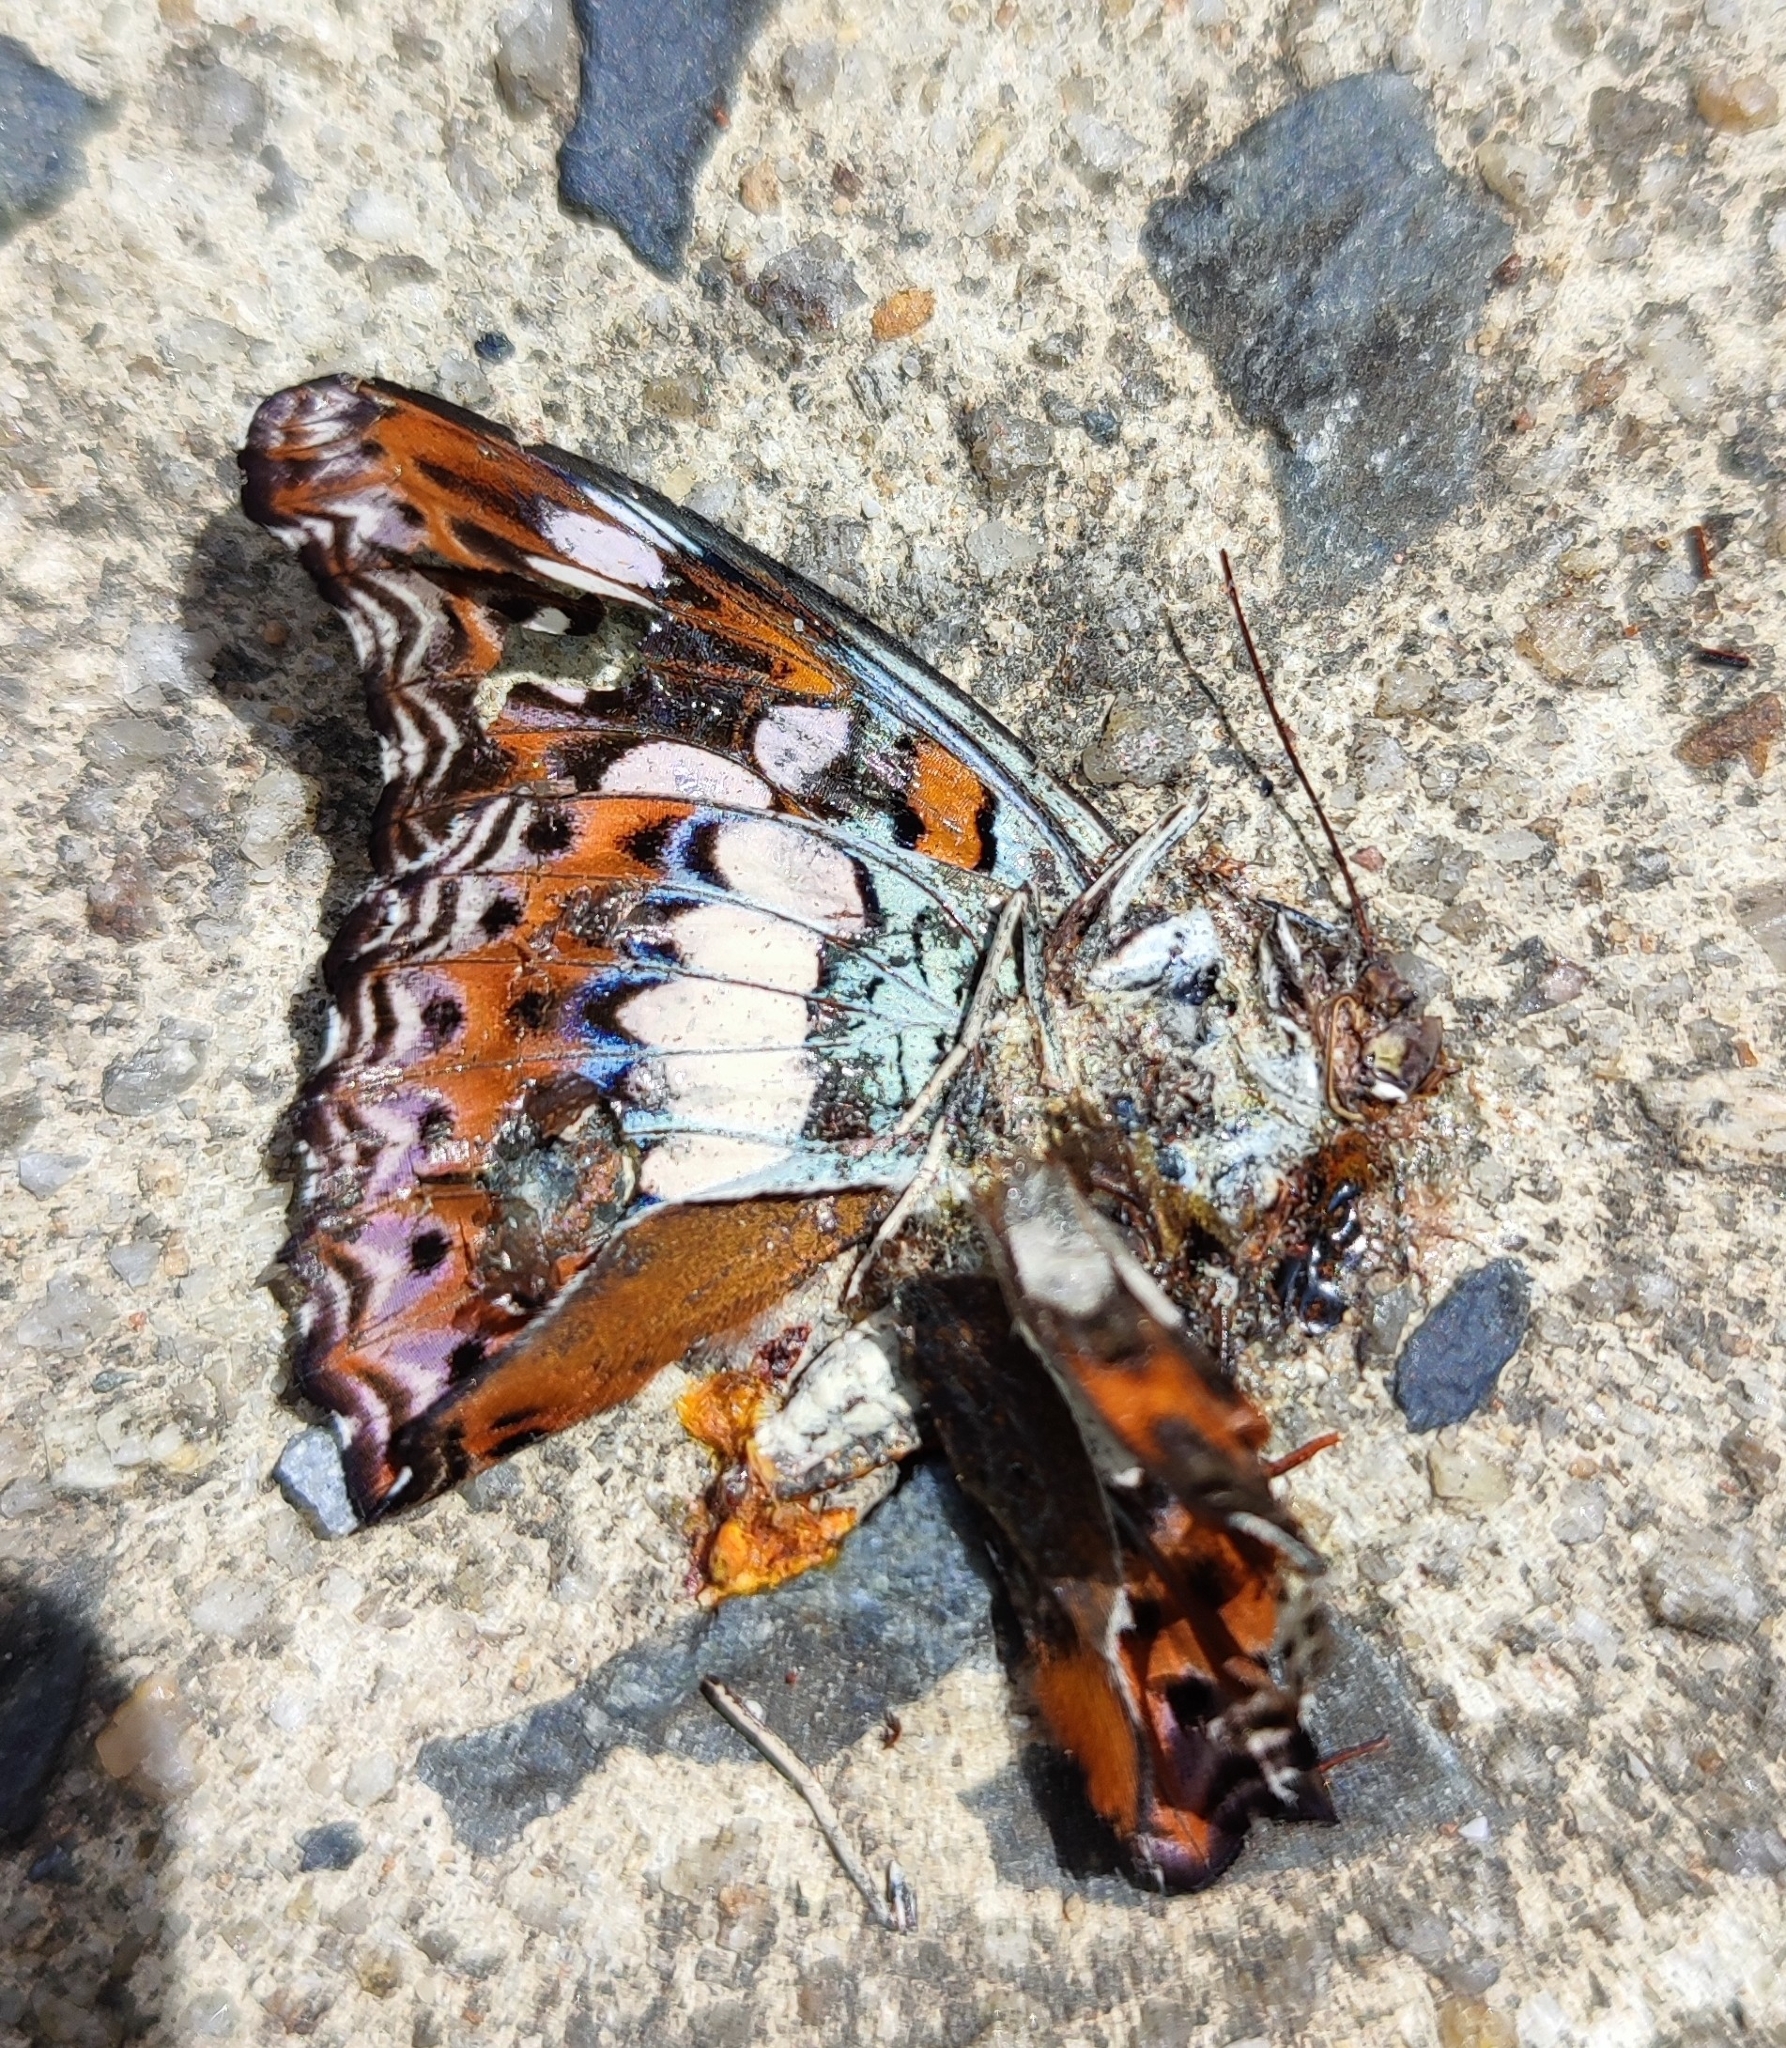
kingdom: Animalia
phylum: Arthropoda
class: Insecta
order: Lepidoptera
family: Nymphalidae
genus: Limenitis
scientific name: Limenitis Moduza procris
